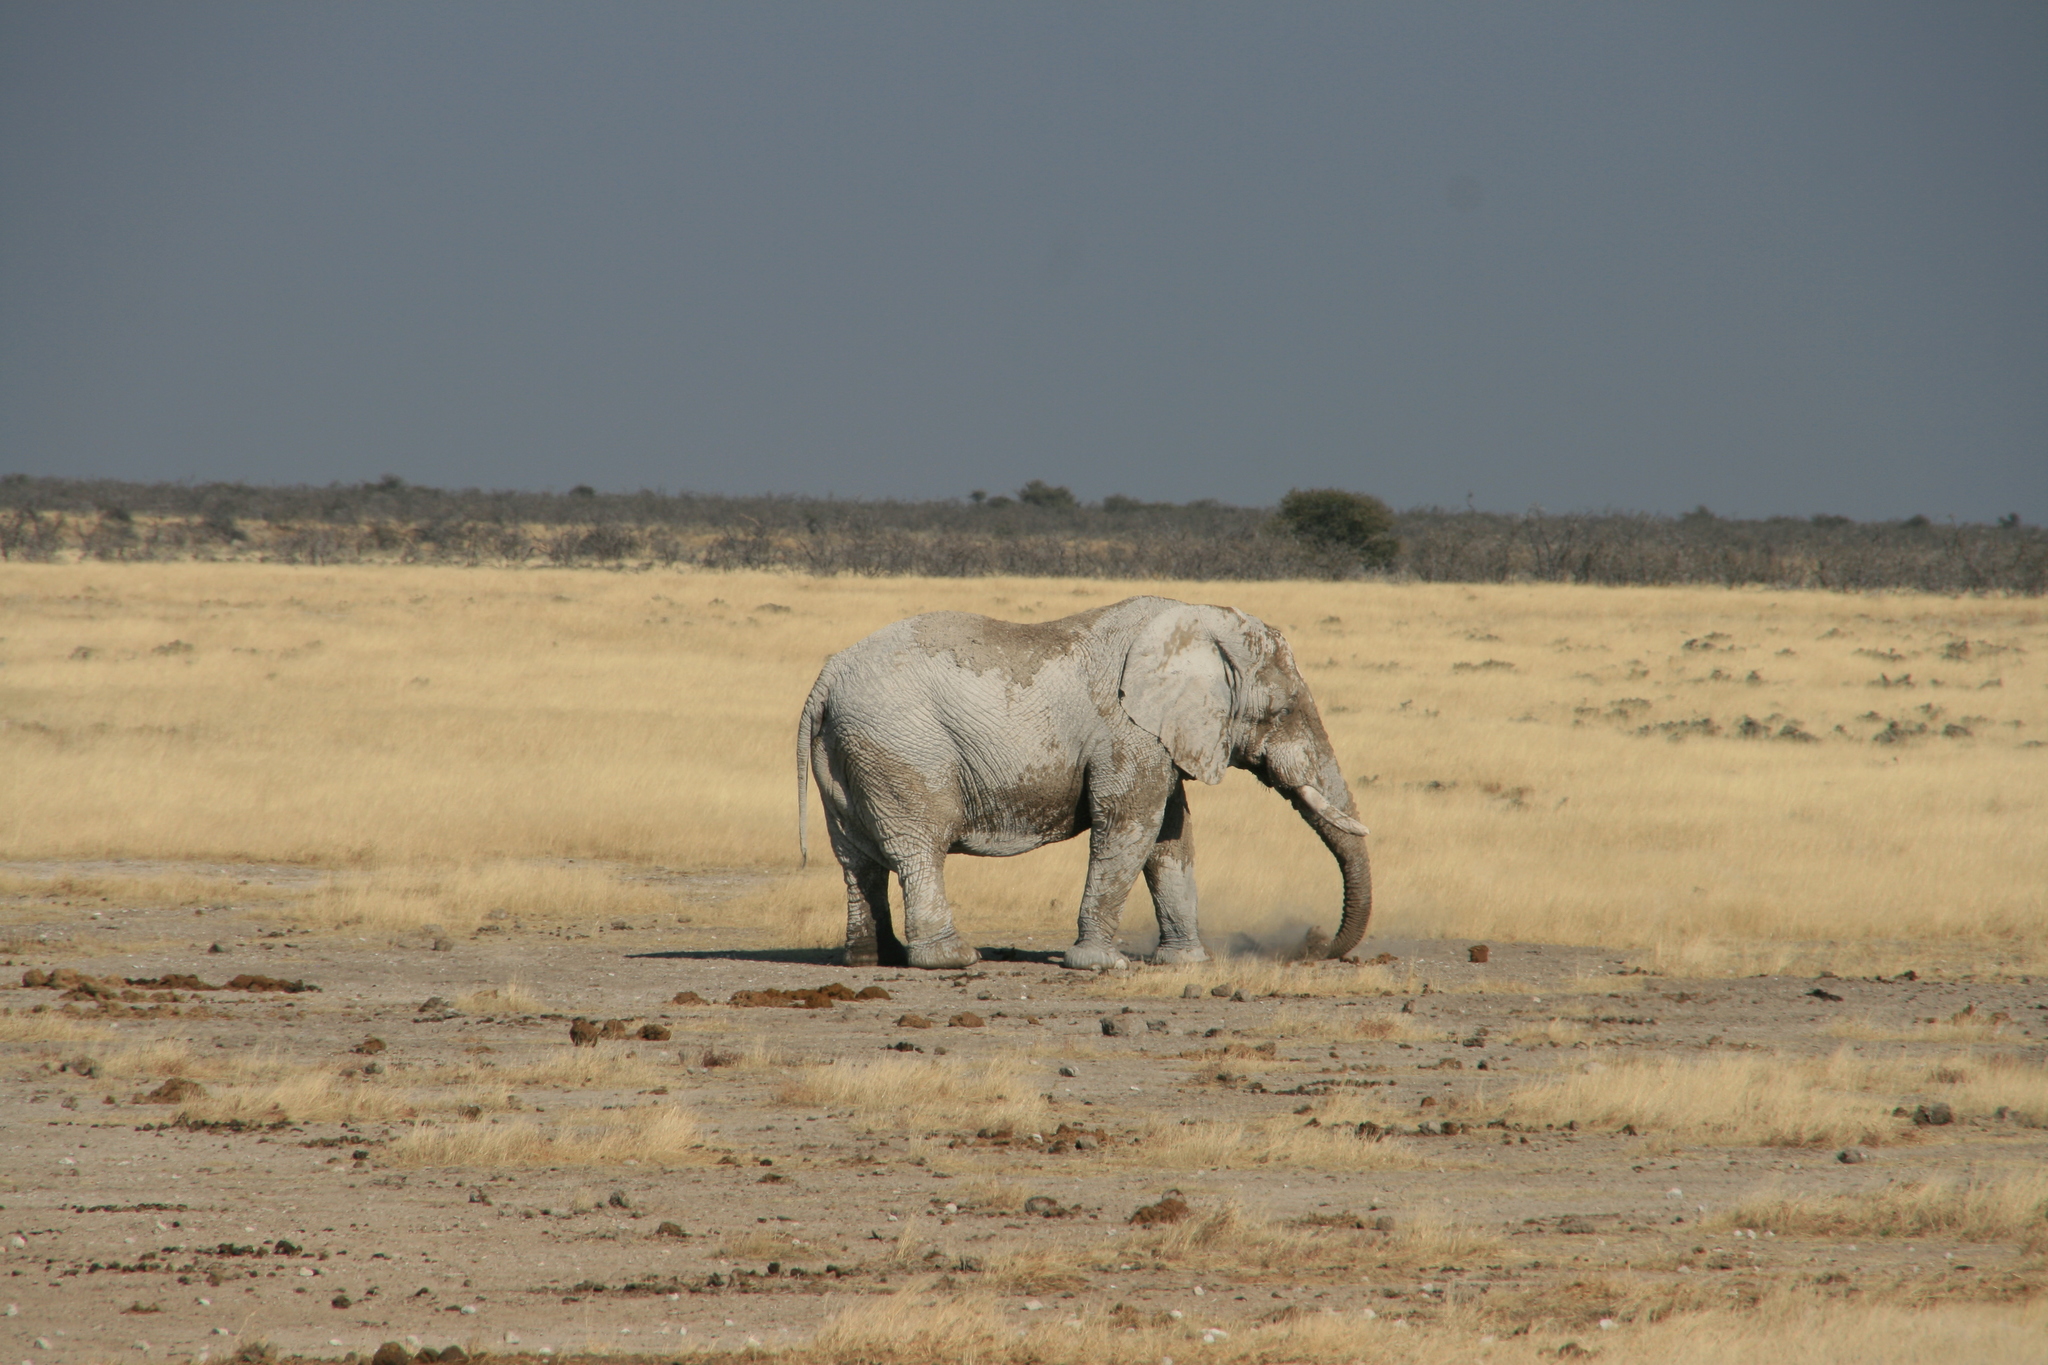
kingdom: Animalia
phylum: Chordata
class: Mammalia
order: Proboscidea
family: Elephantidae
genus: Loxodonta
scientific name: Loxodonta africana
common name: African elephant
